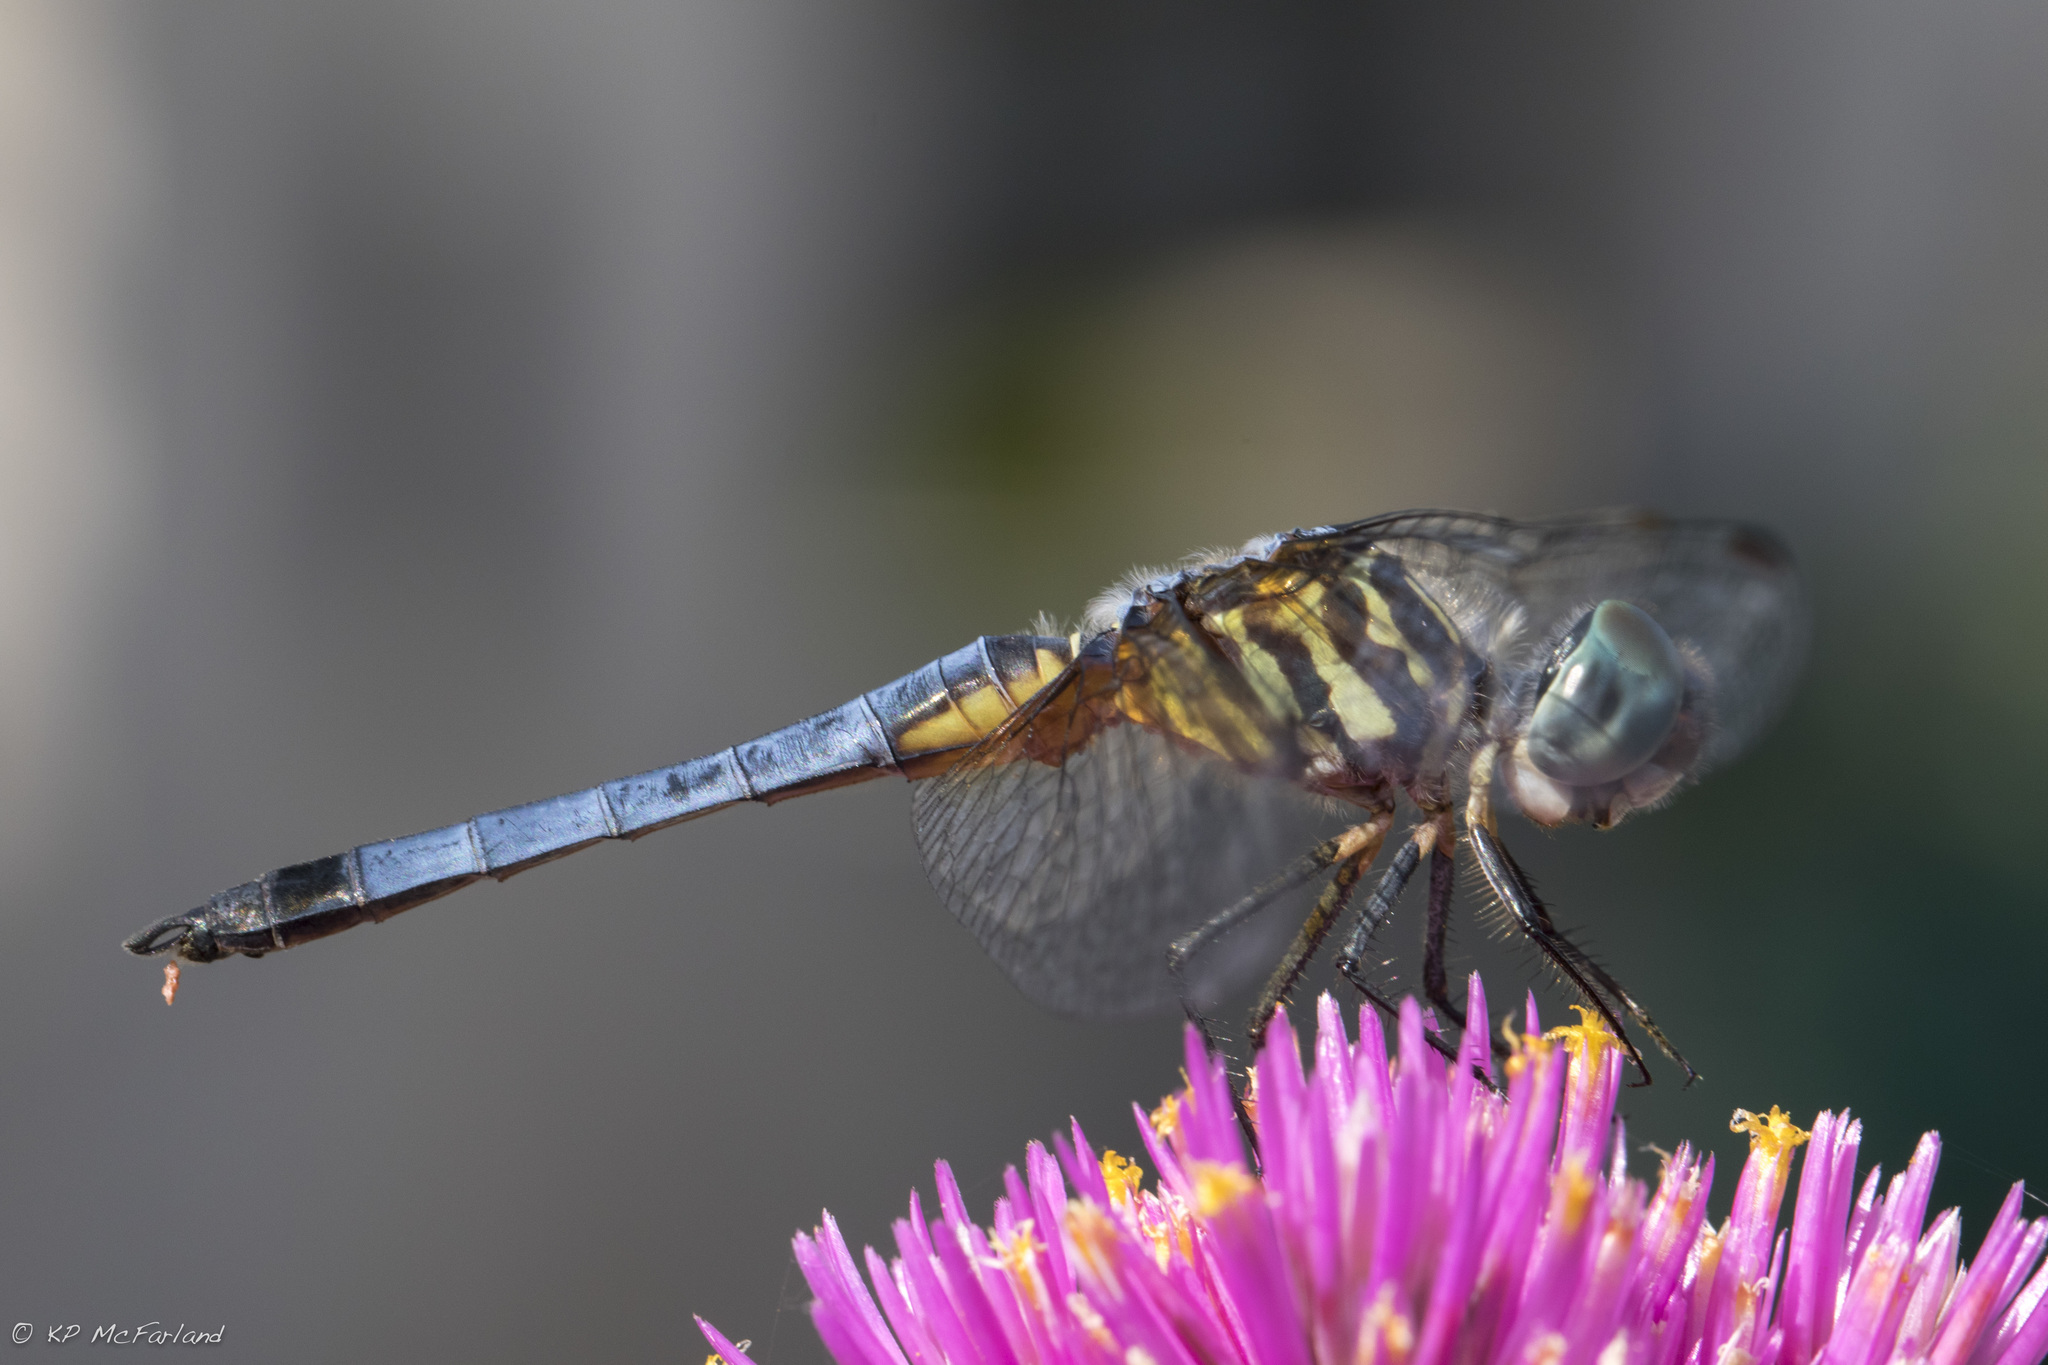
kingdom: Animalia
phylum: Arthropoda
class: Insecta
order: Odonata
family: Libellulidae
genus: Pachydiplax
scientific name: Pachydiplax longipennis
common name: Blue dasher
